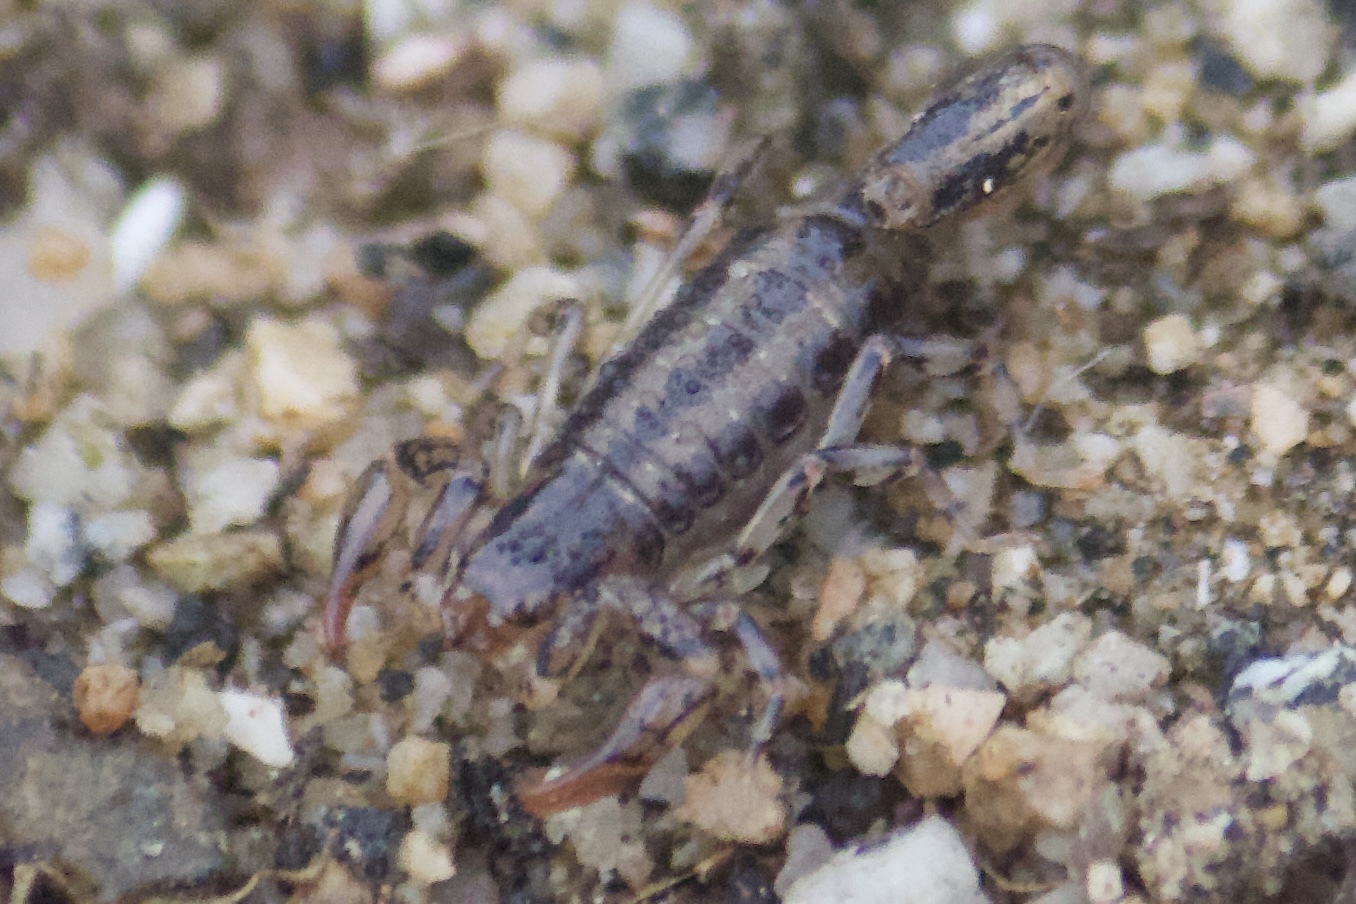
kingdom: Animalia
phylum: Arthropoda
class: Arachnida
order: Scorpiones
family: Superstitioniidae
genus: Superstitionia
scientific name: Superstitionia donensis
